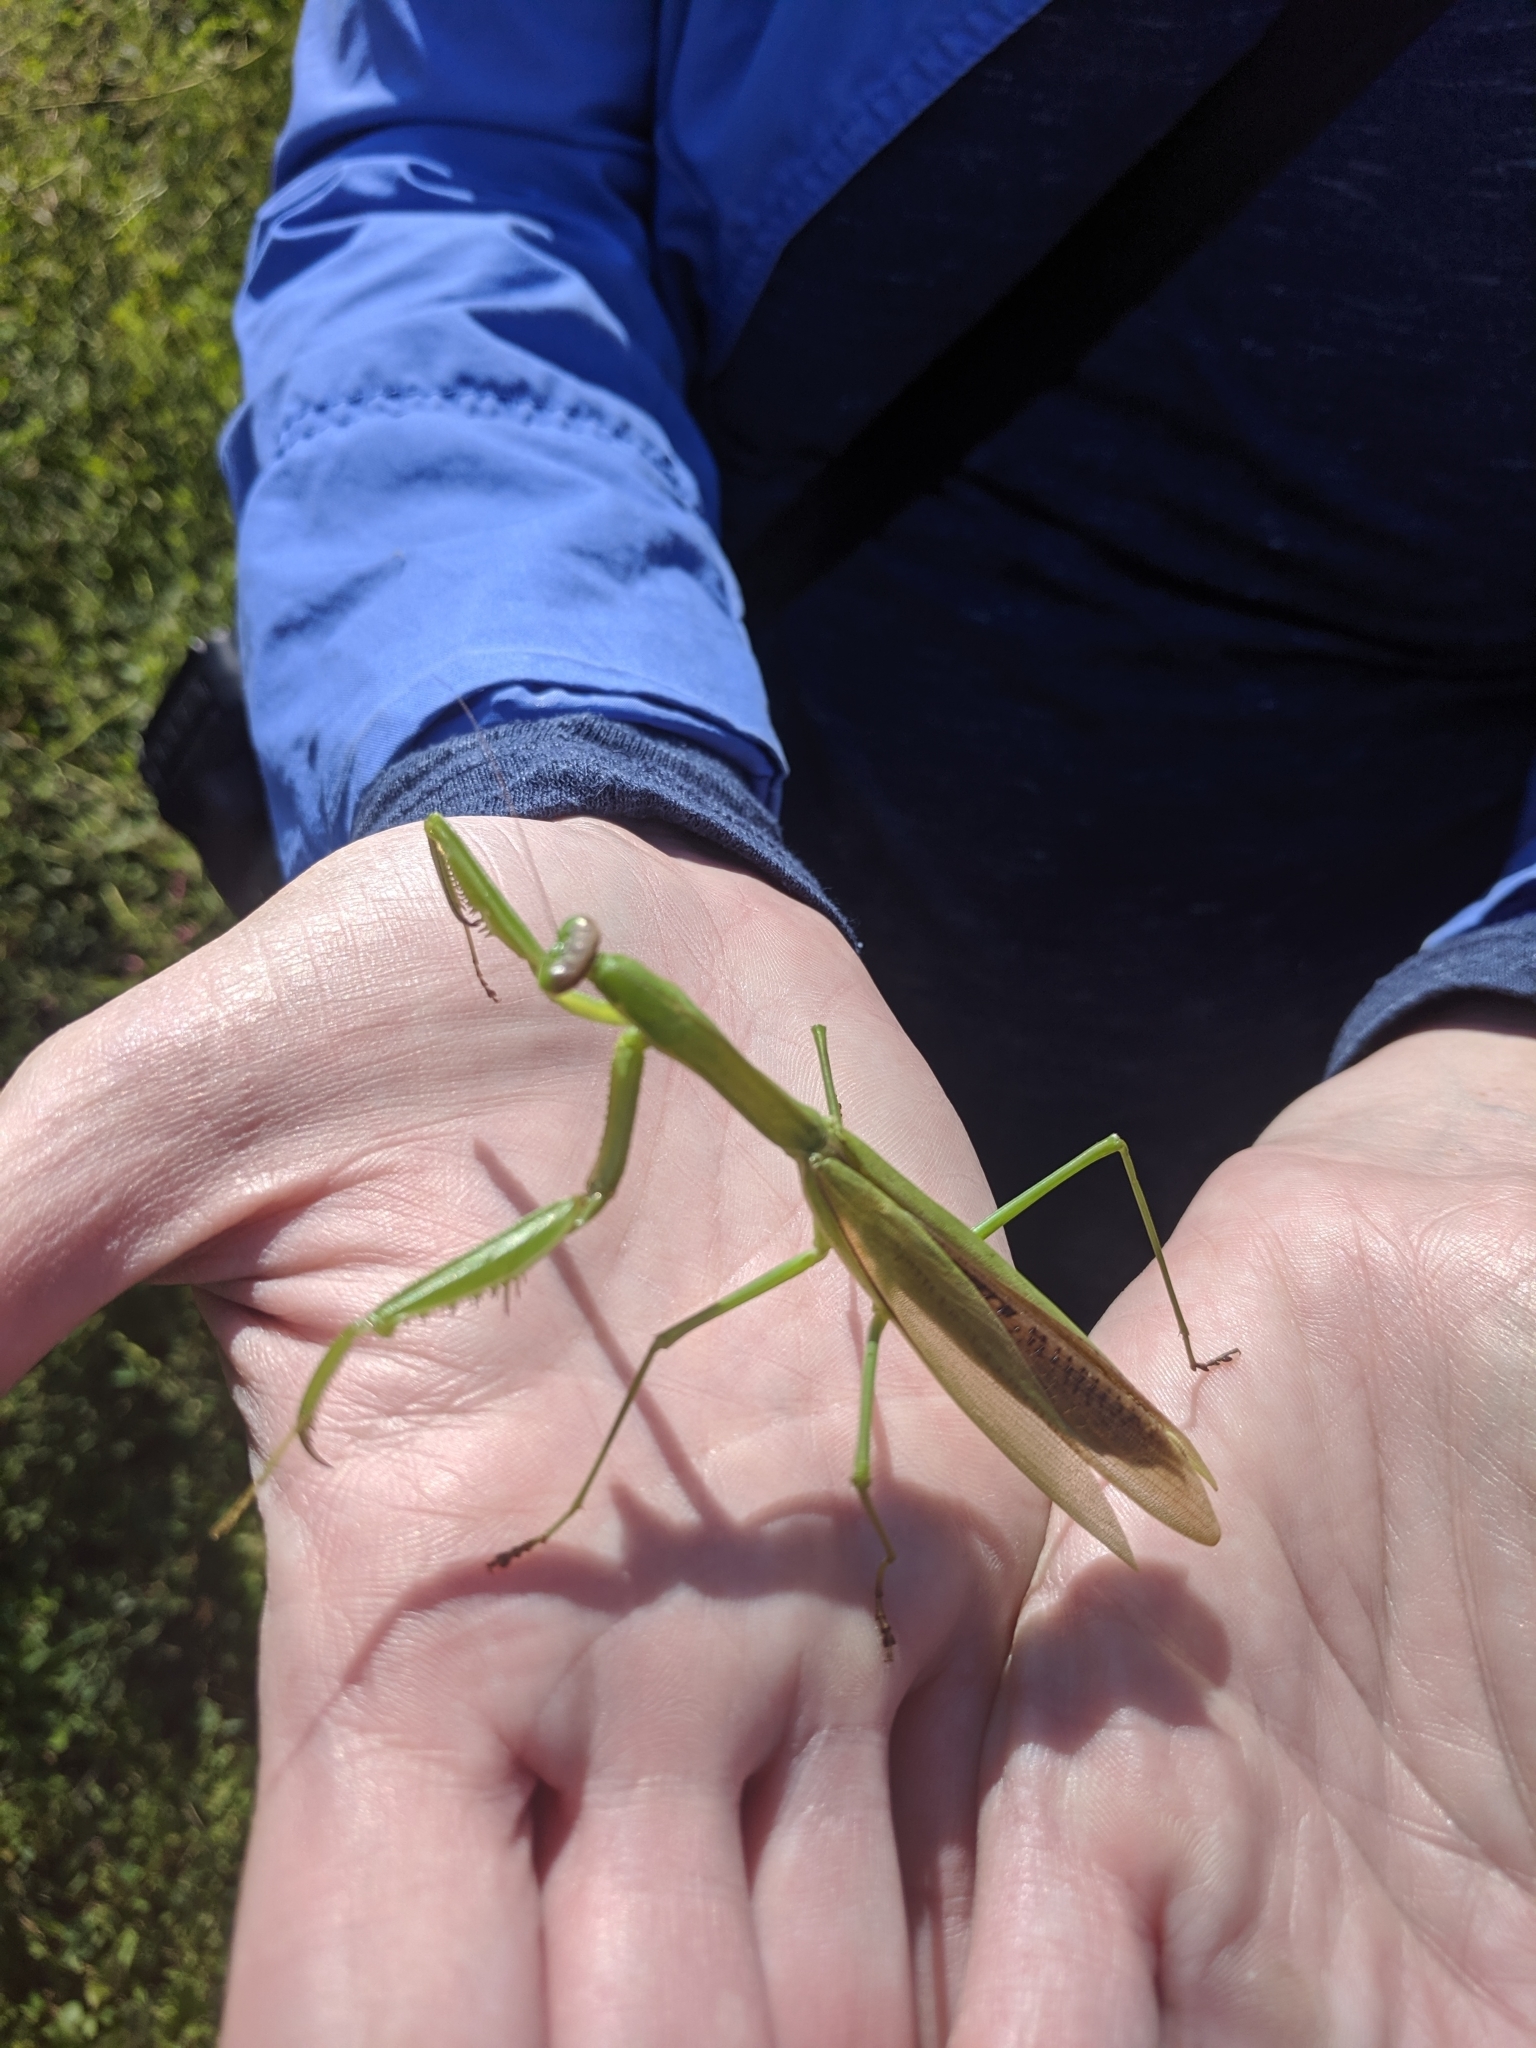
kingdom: Animalia
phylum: Arthropoda
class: Insecta
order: Mantodea
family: Mantidae
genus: Tenodera
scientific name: Tenodera angustipennis
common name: Asian mantis
